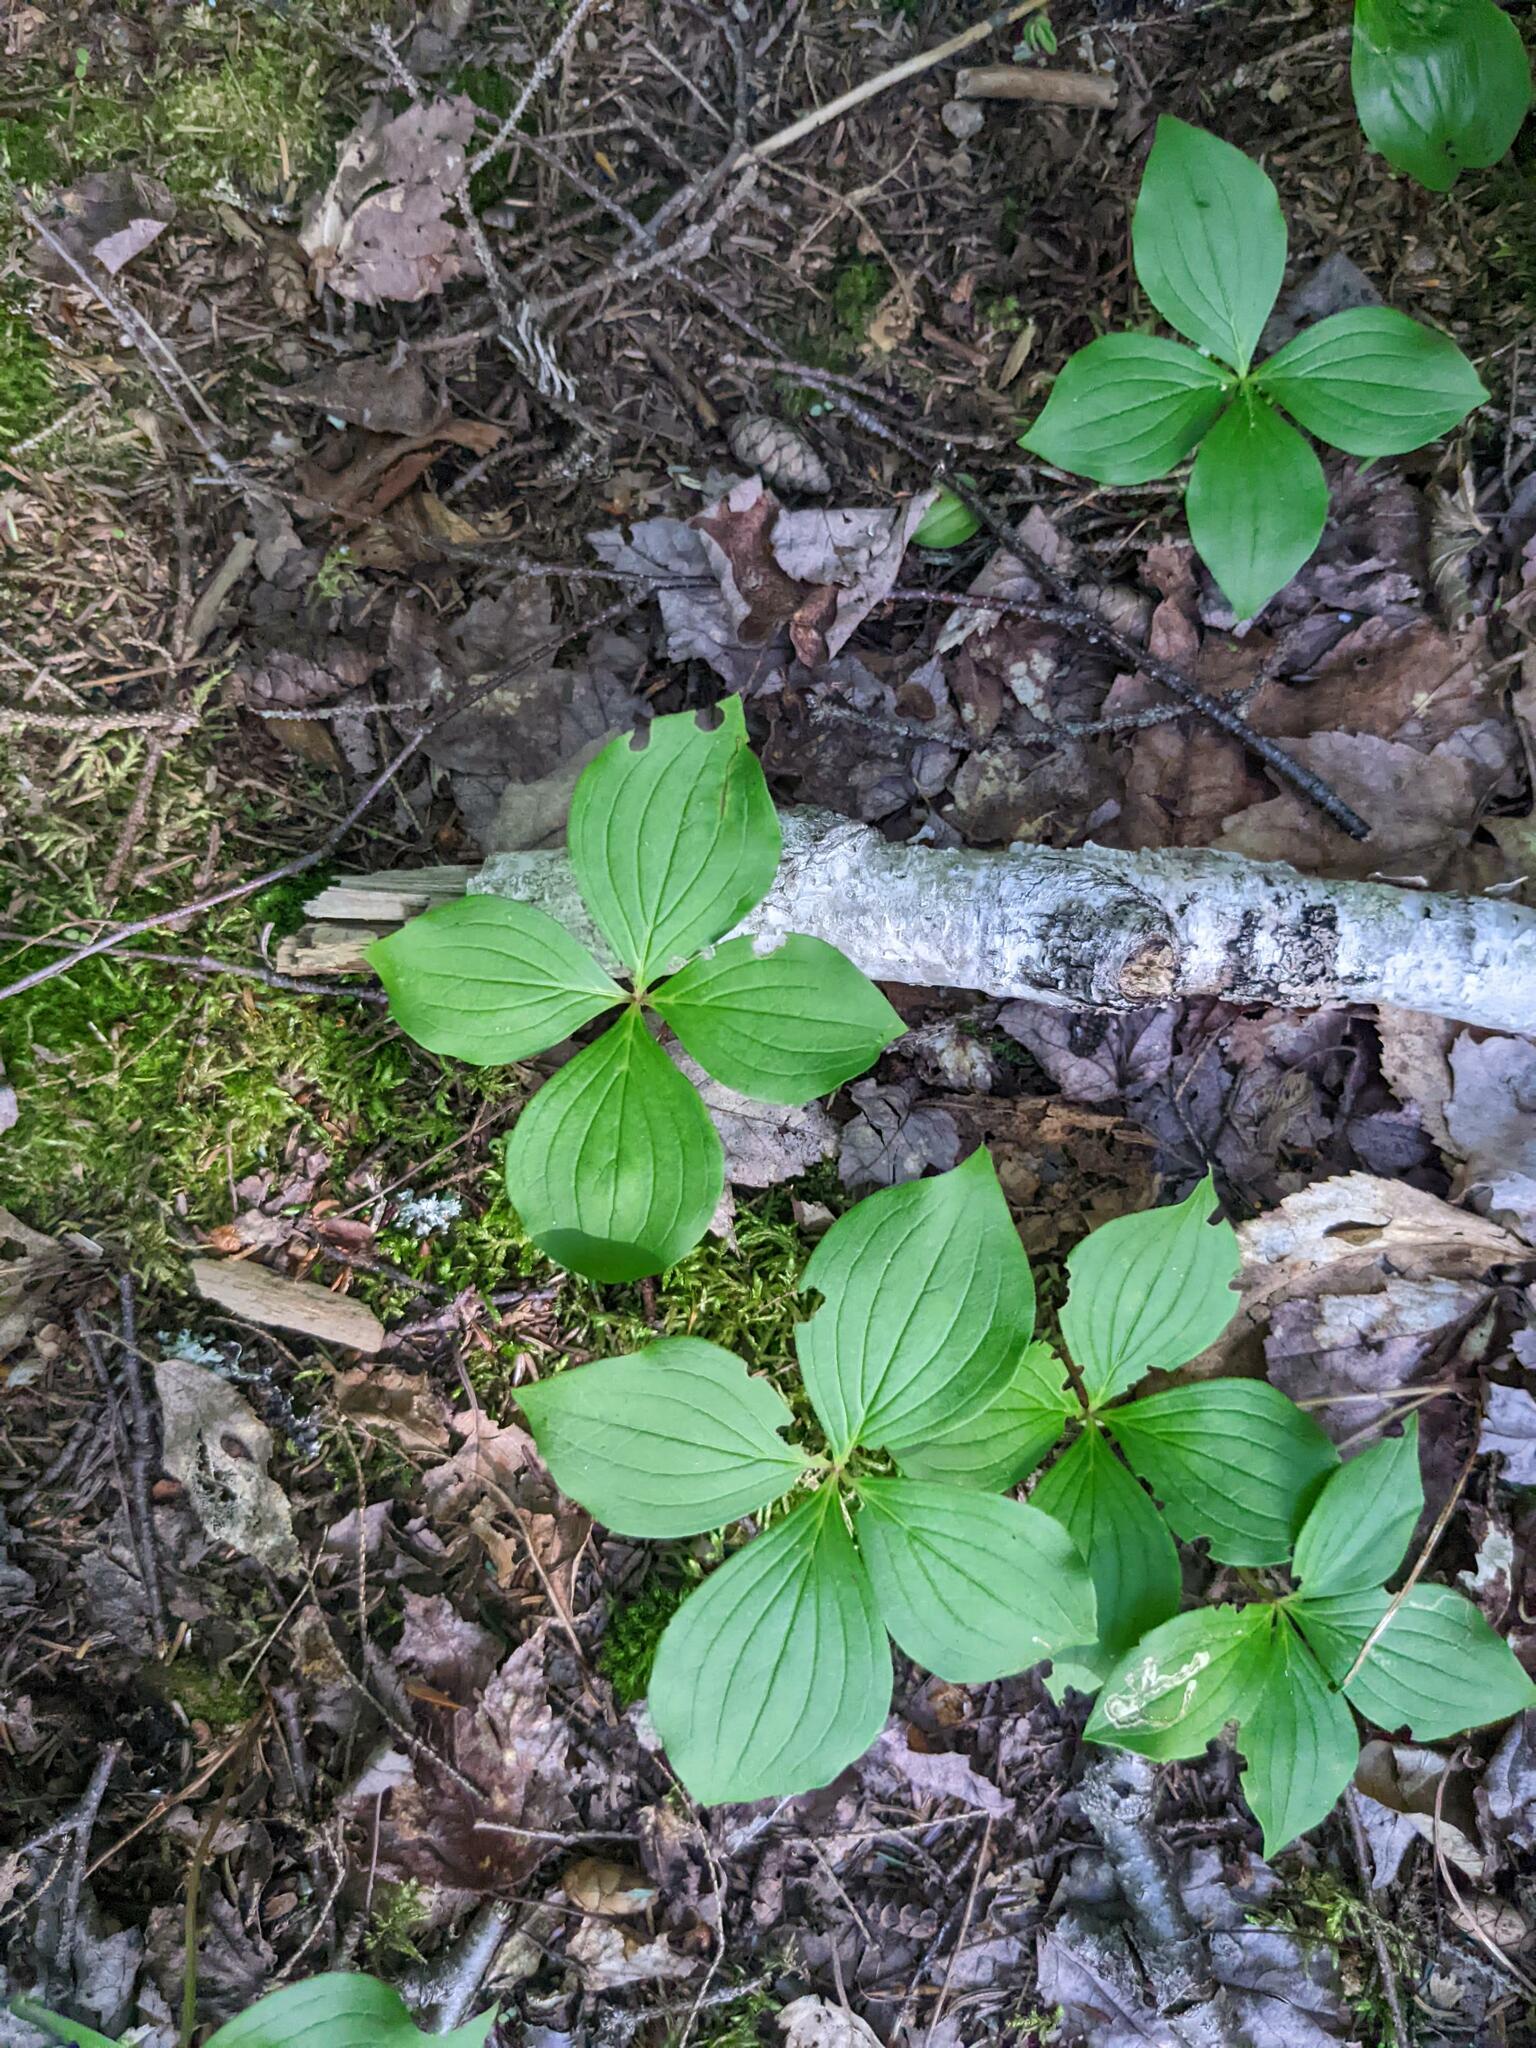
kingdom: Plantae
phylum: Tracheophyta
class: Magnoliopsida
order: Cornales
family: Cornaceae
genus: Cornus
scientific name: Cornus canadensis
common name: Creeping dogwood
